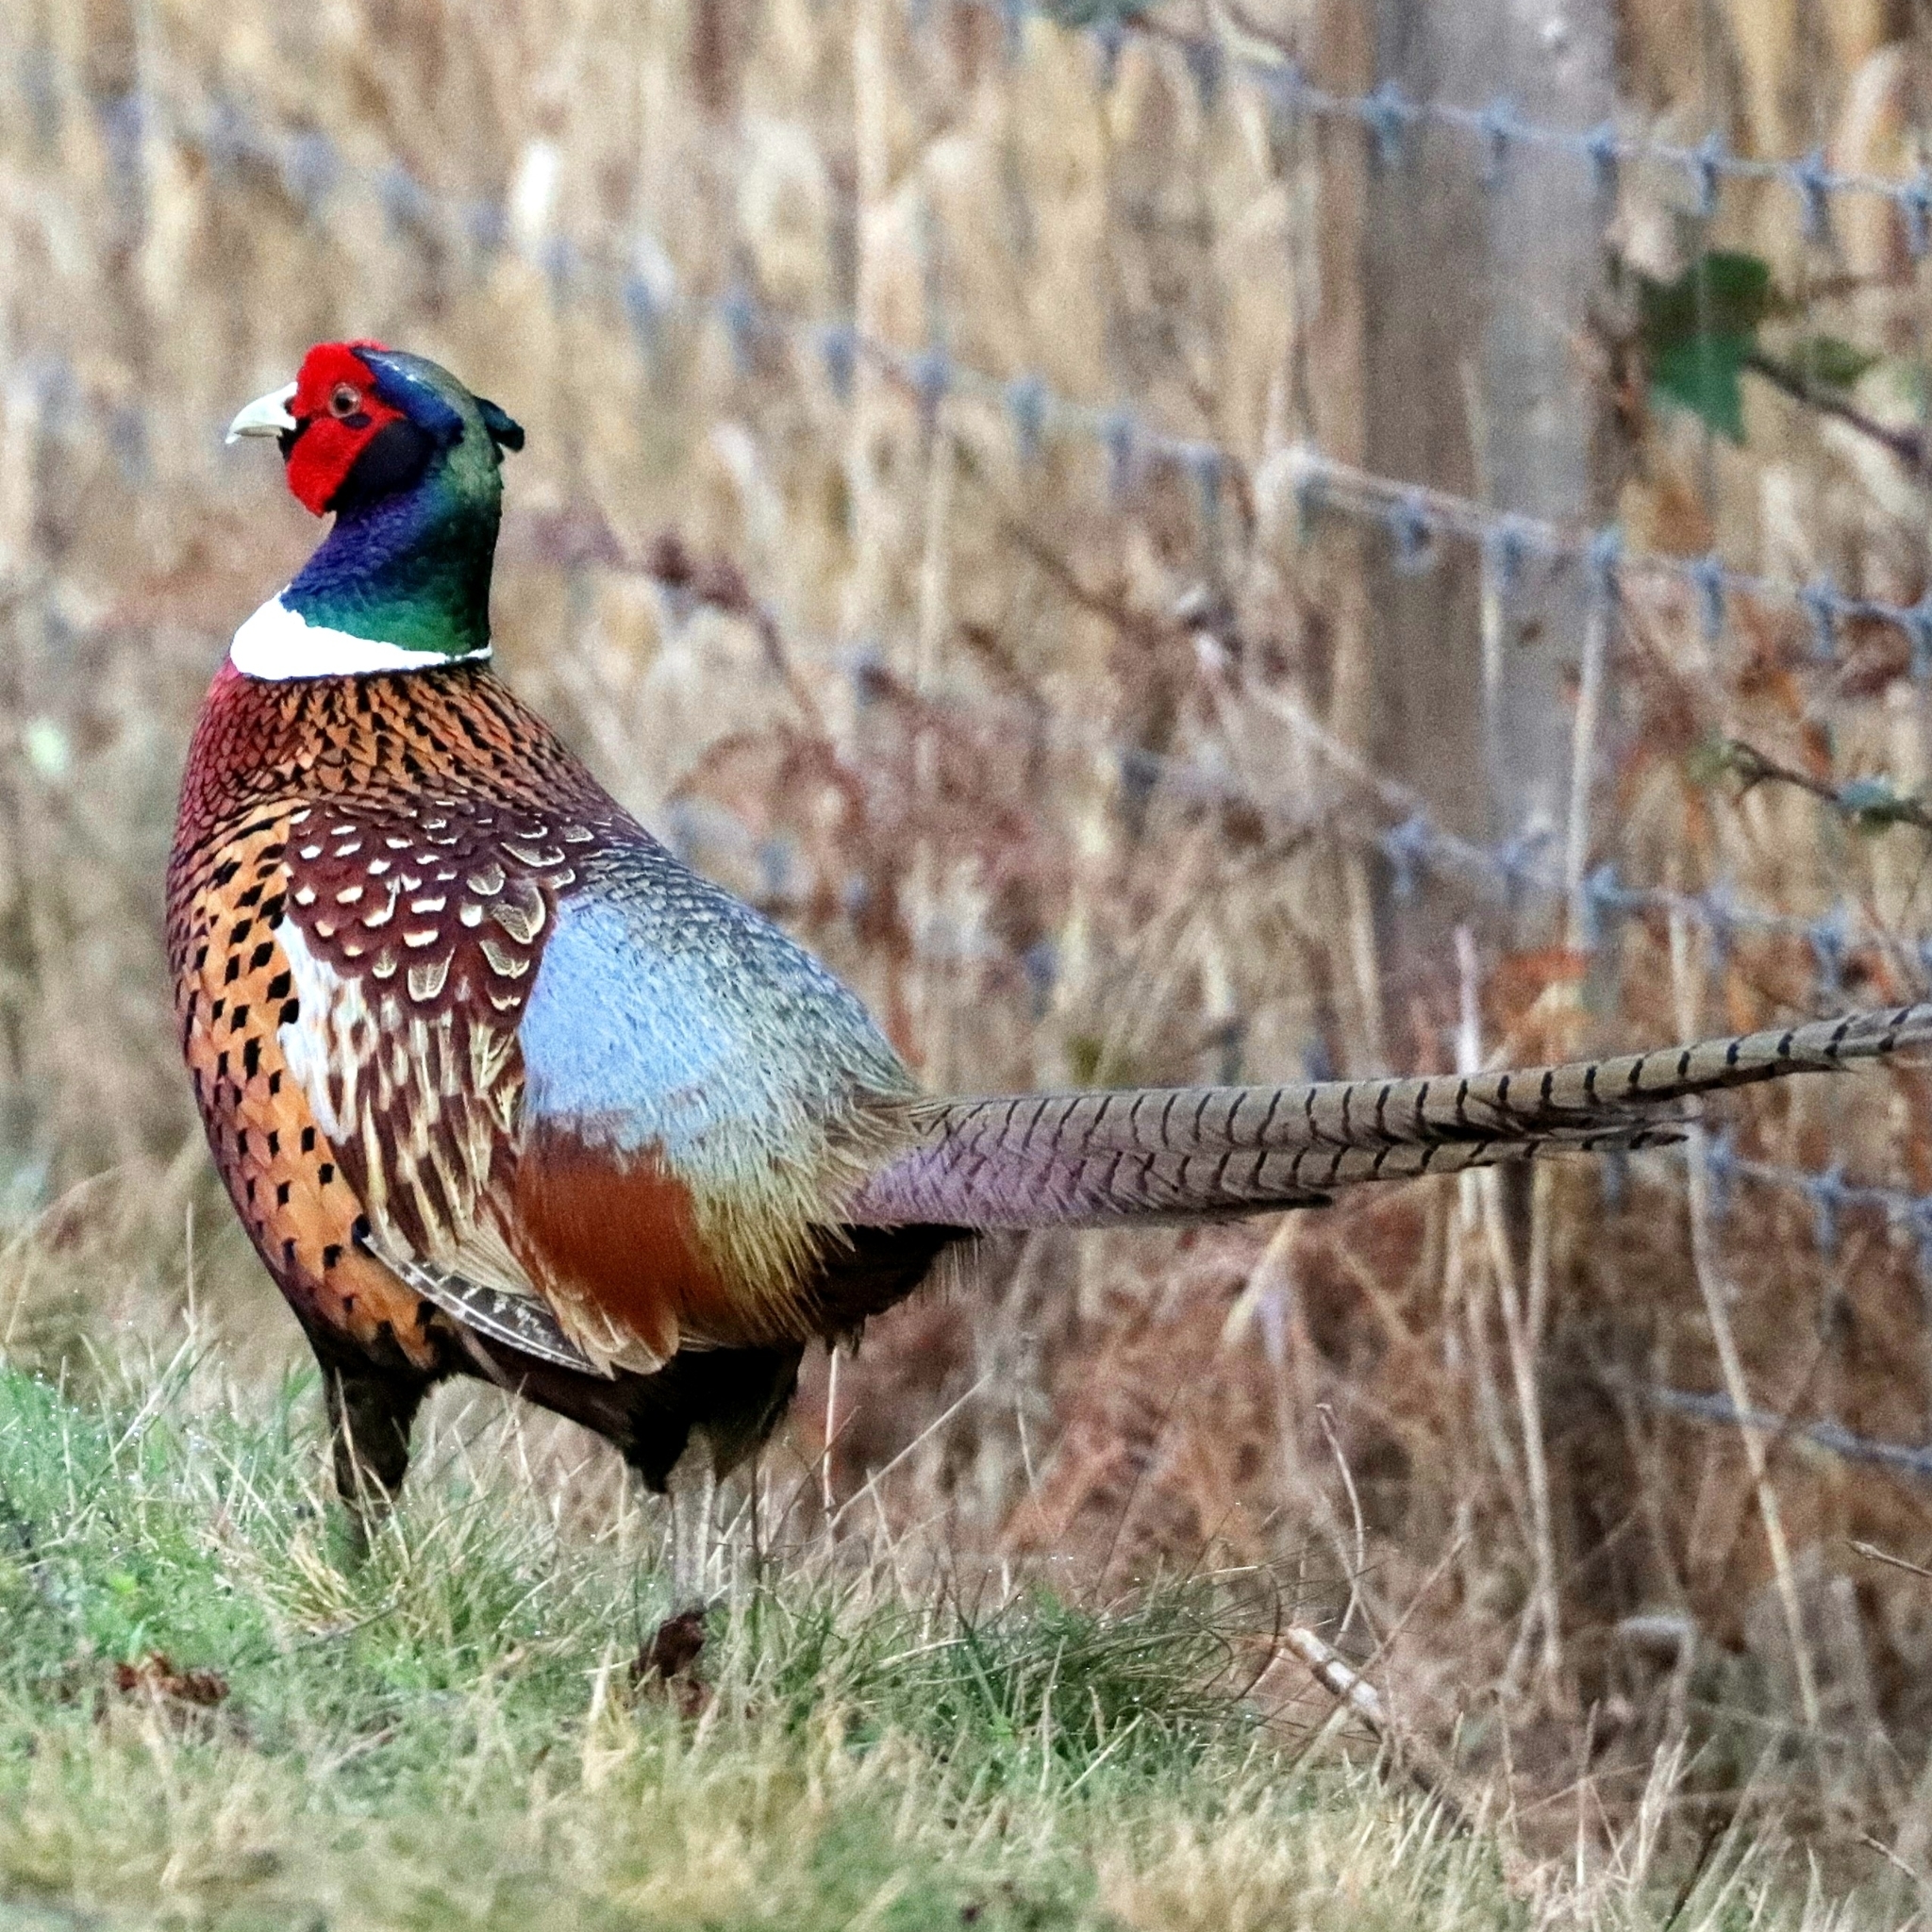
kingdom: Animalia
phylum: Chordata
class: Aves
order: Galliformes
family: Phasianidae
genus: Phasianus
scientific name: Phasianus colchicus
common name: Common pheasant
